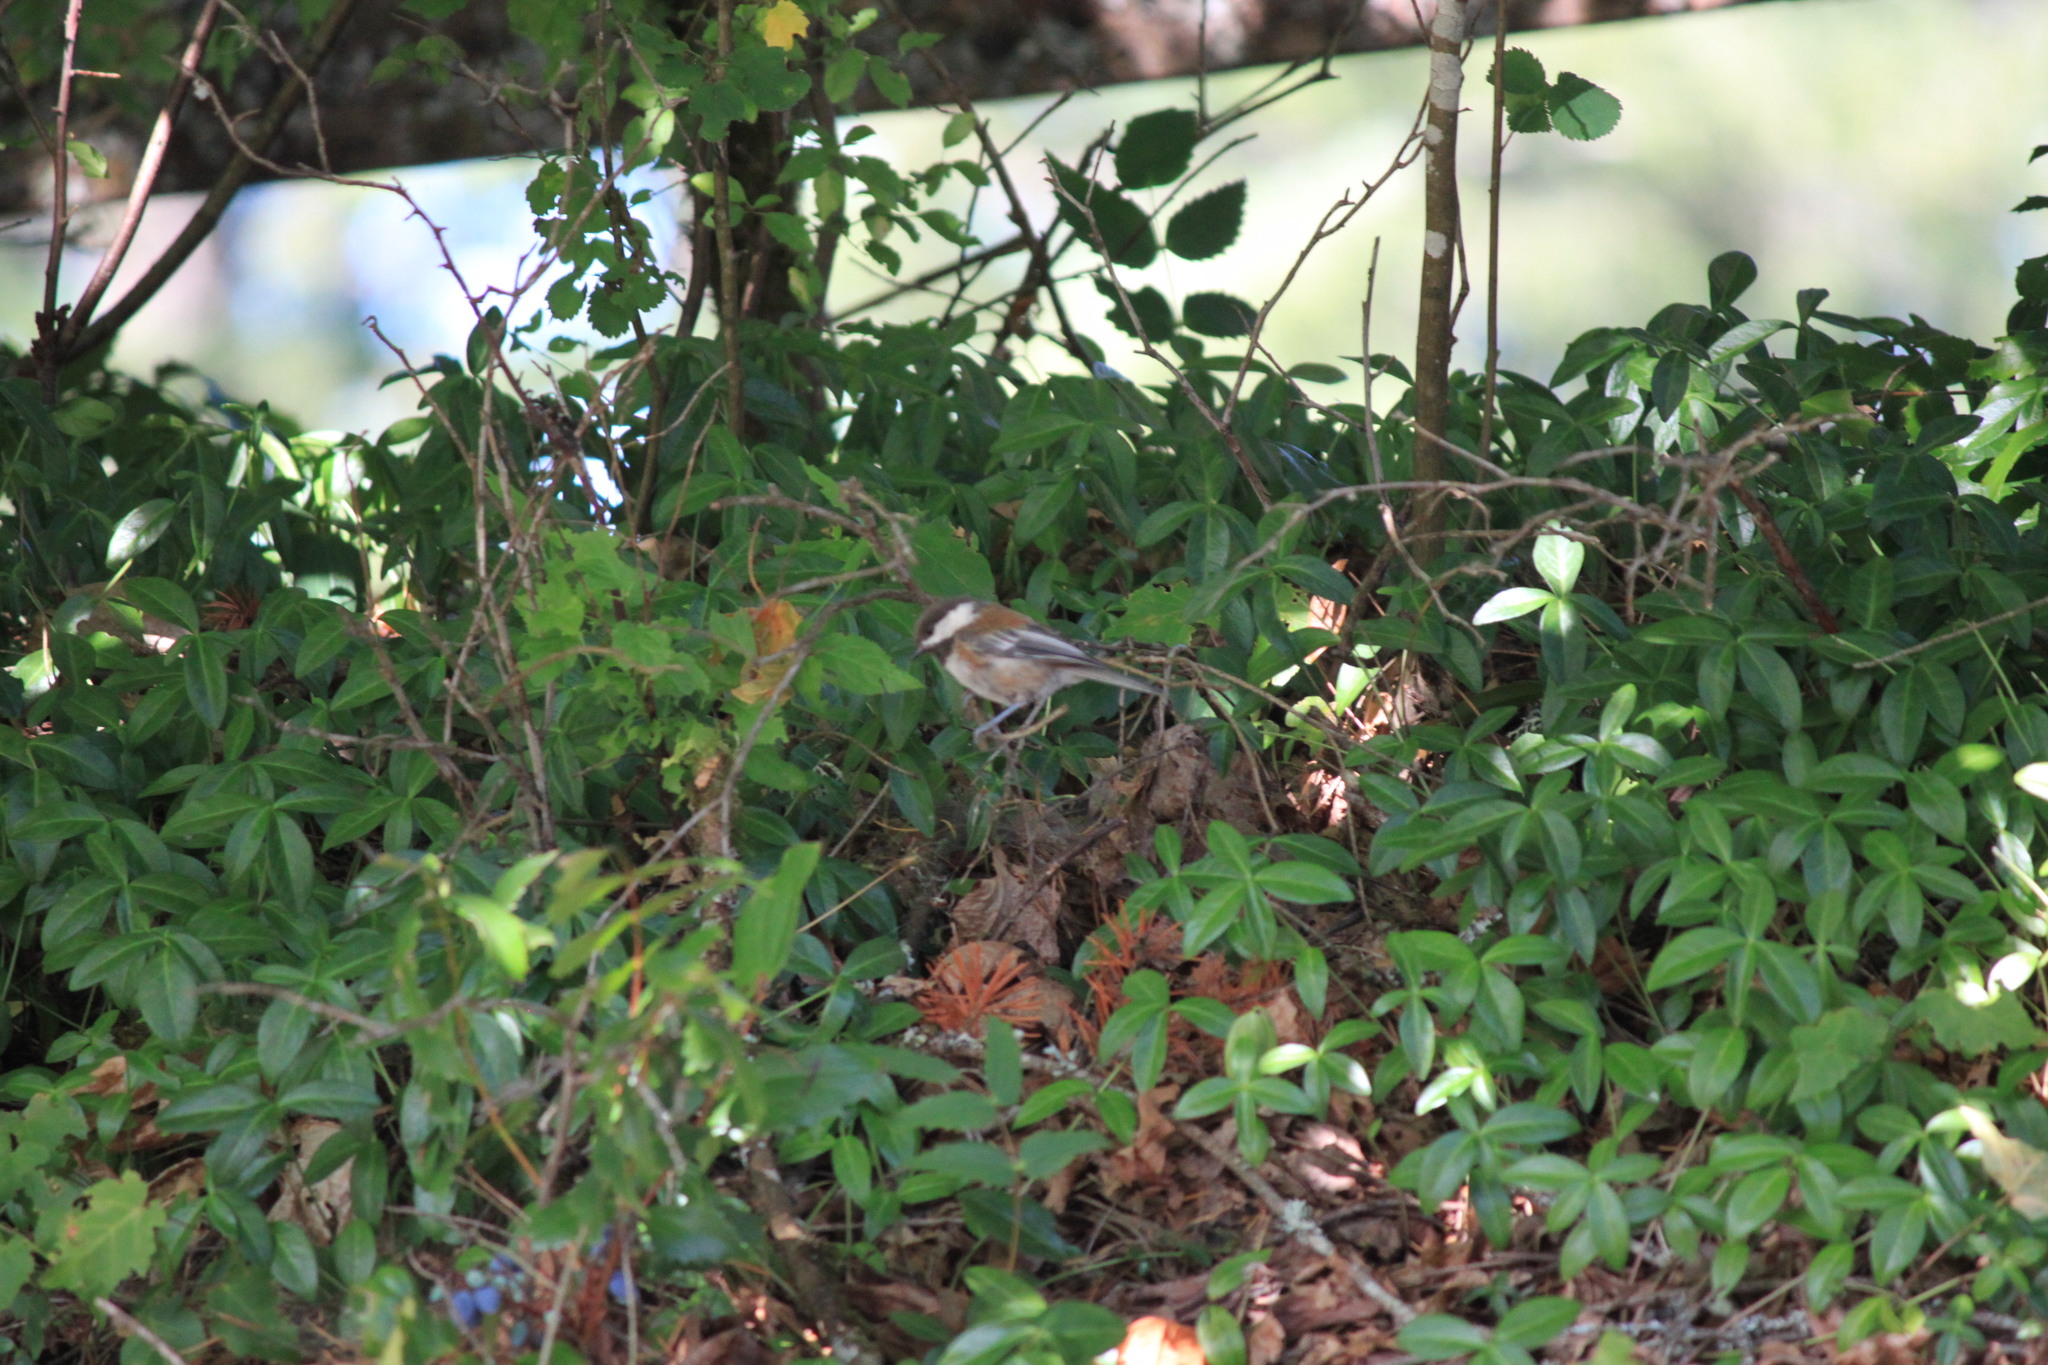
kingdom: Animalia
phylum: Chordata
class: Aves
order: Passeriformes
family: Paridae
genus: Poecile
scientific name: Poecile rufescens
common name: Chestnut-backed chickadee
